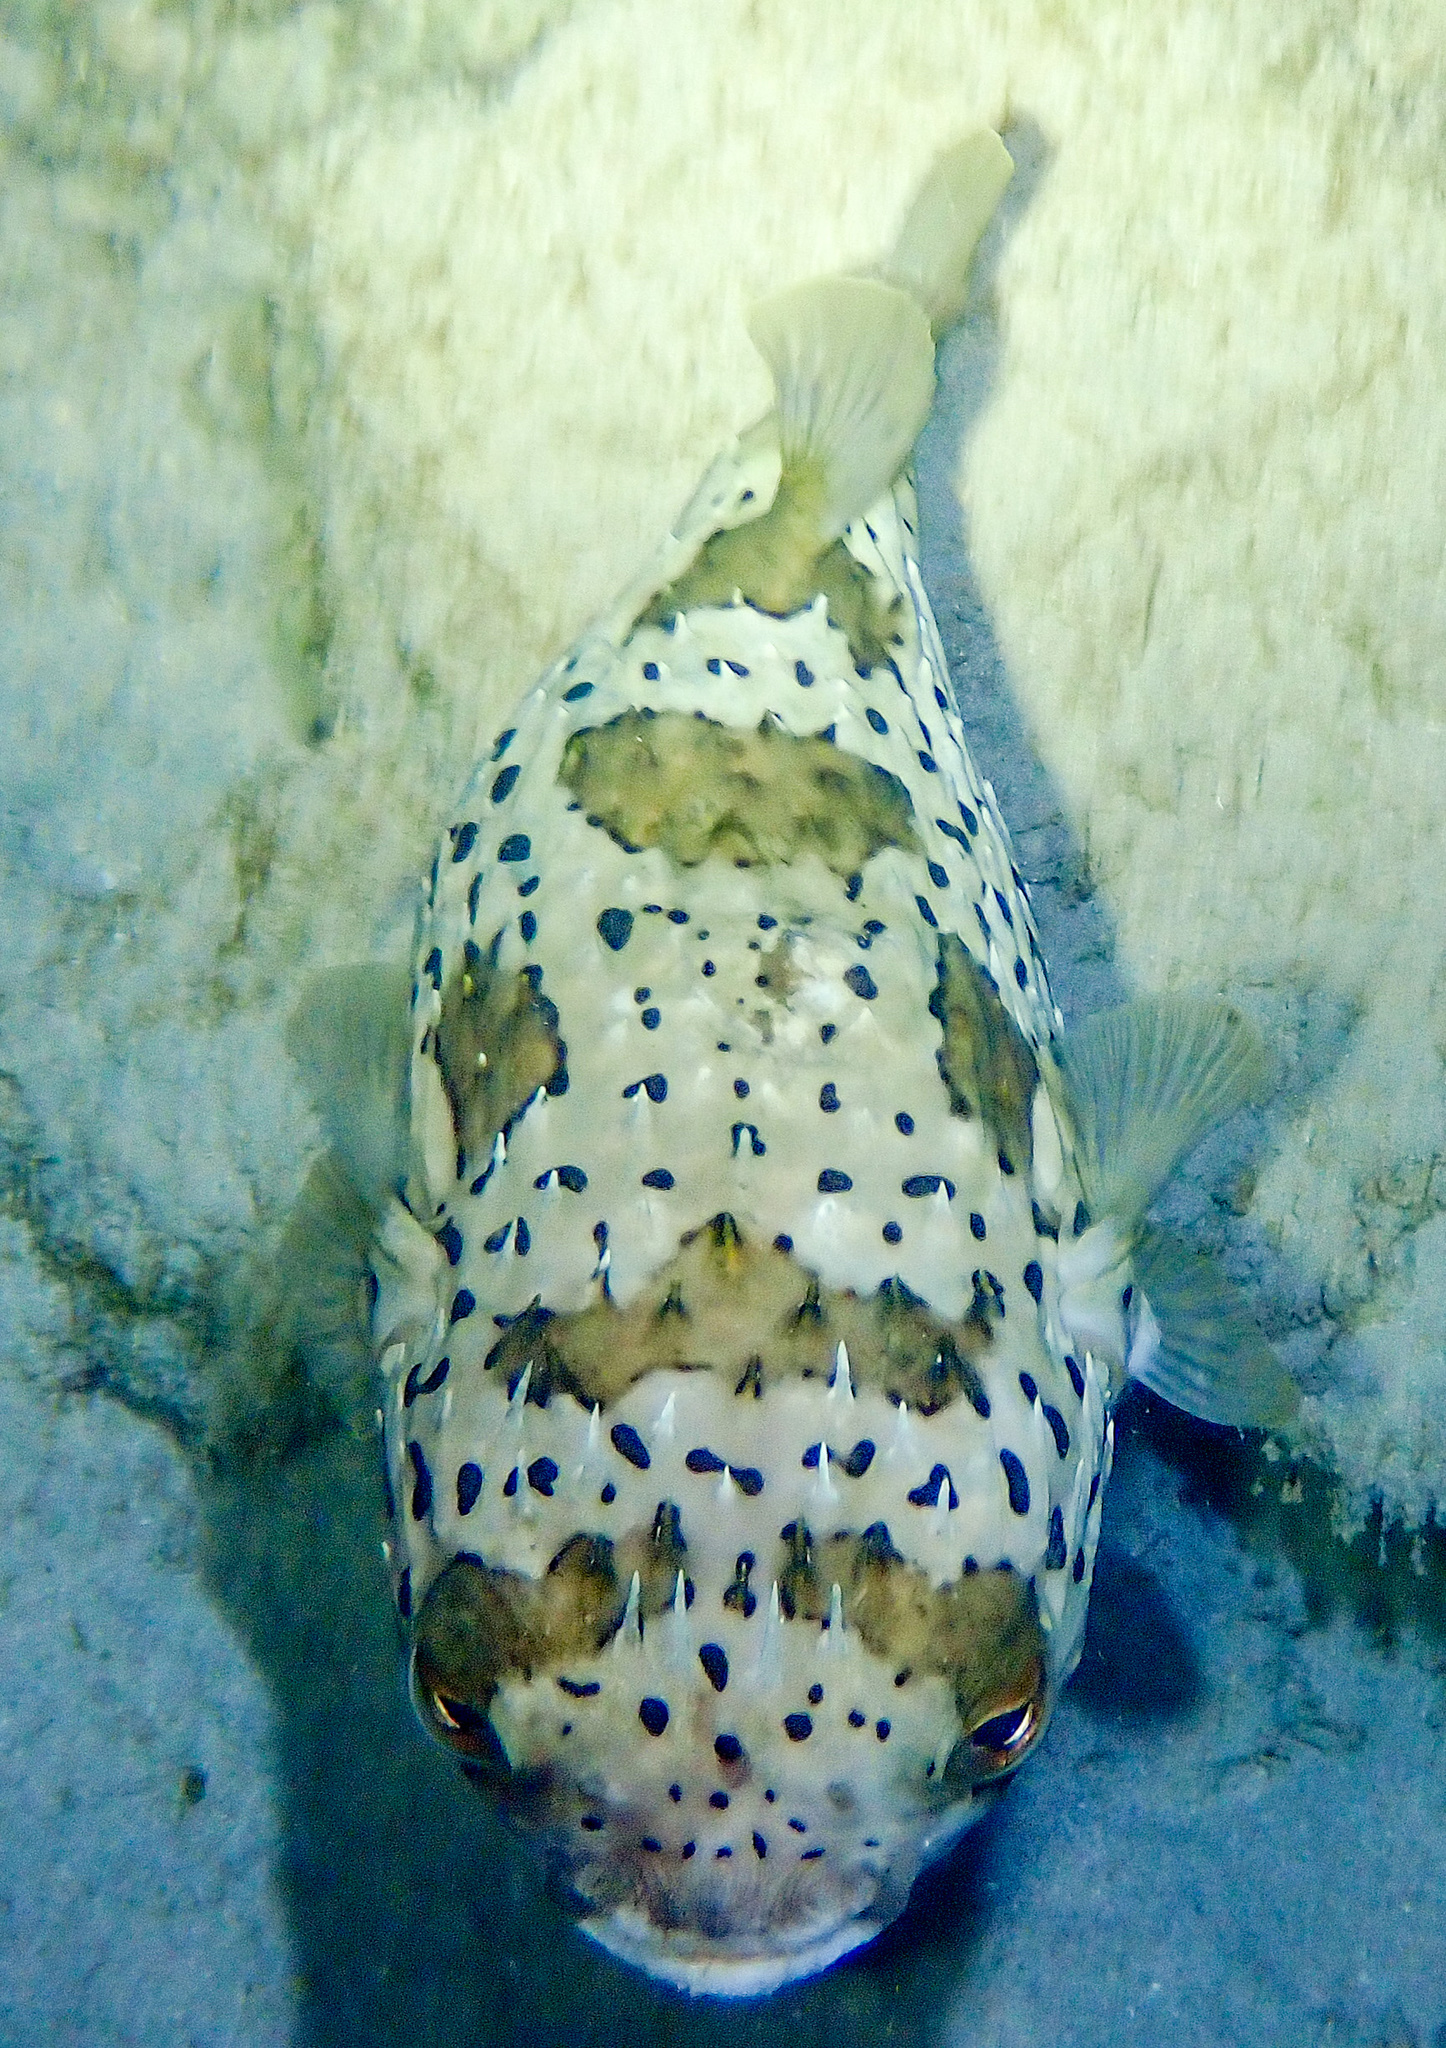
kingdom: Animalia
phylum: Chordata
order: Tetraodontiformes
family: Diodontidae
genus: Diodon
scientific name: Diodon holocanthus
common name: Balloonfish
